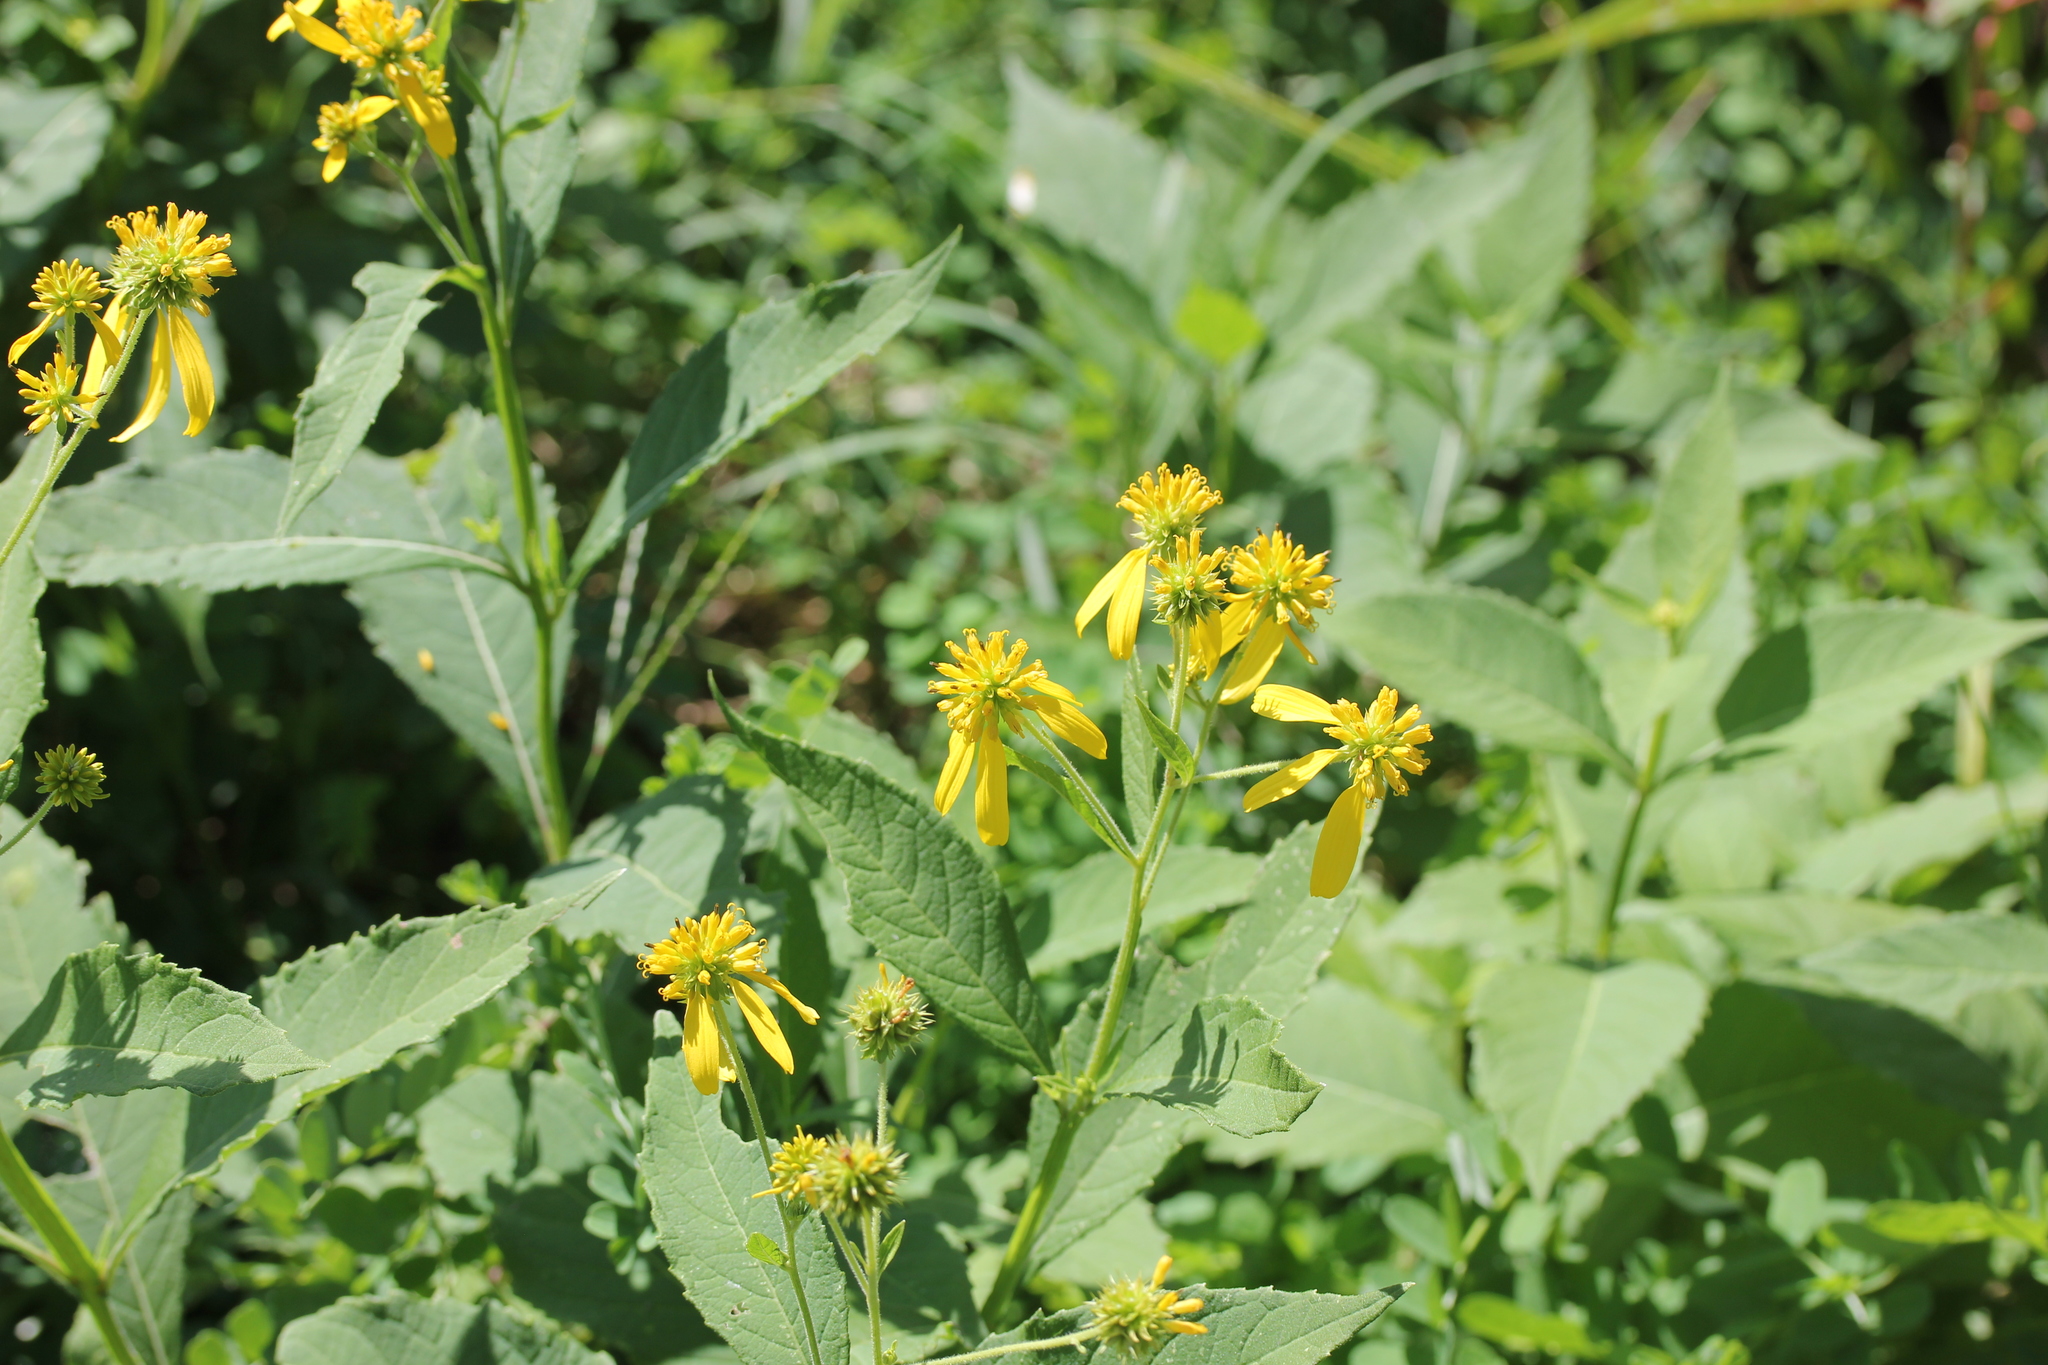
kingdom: Plantae
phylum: Tracheophyta
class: Magnoliopsida
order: Asterales
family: Asteraceae
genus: Verbesina
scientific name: Verbesina alternifolia
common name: Wingstem
